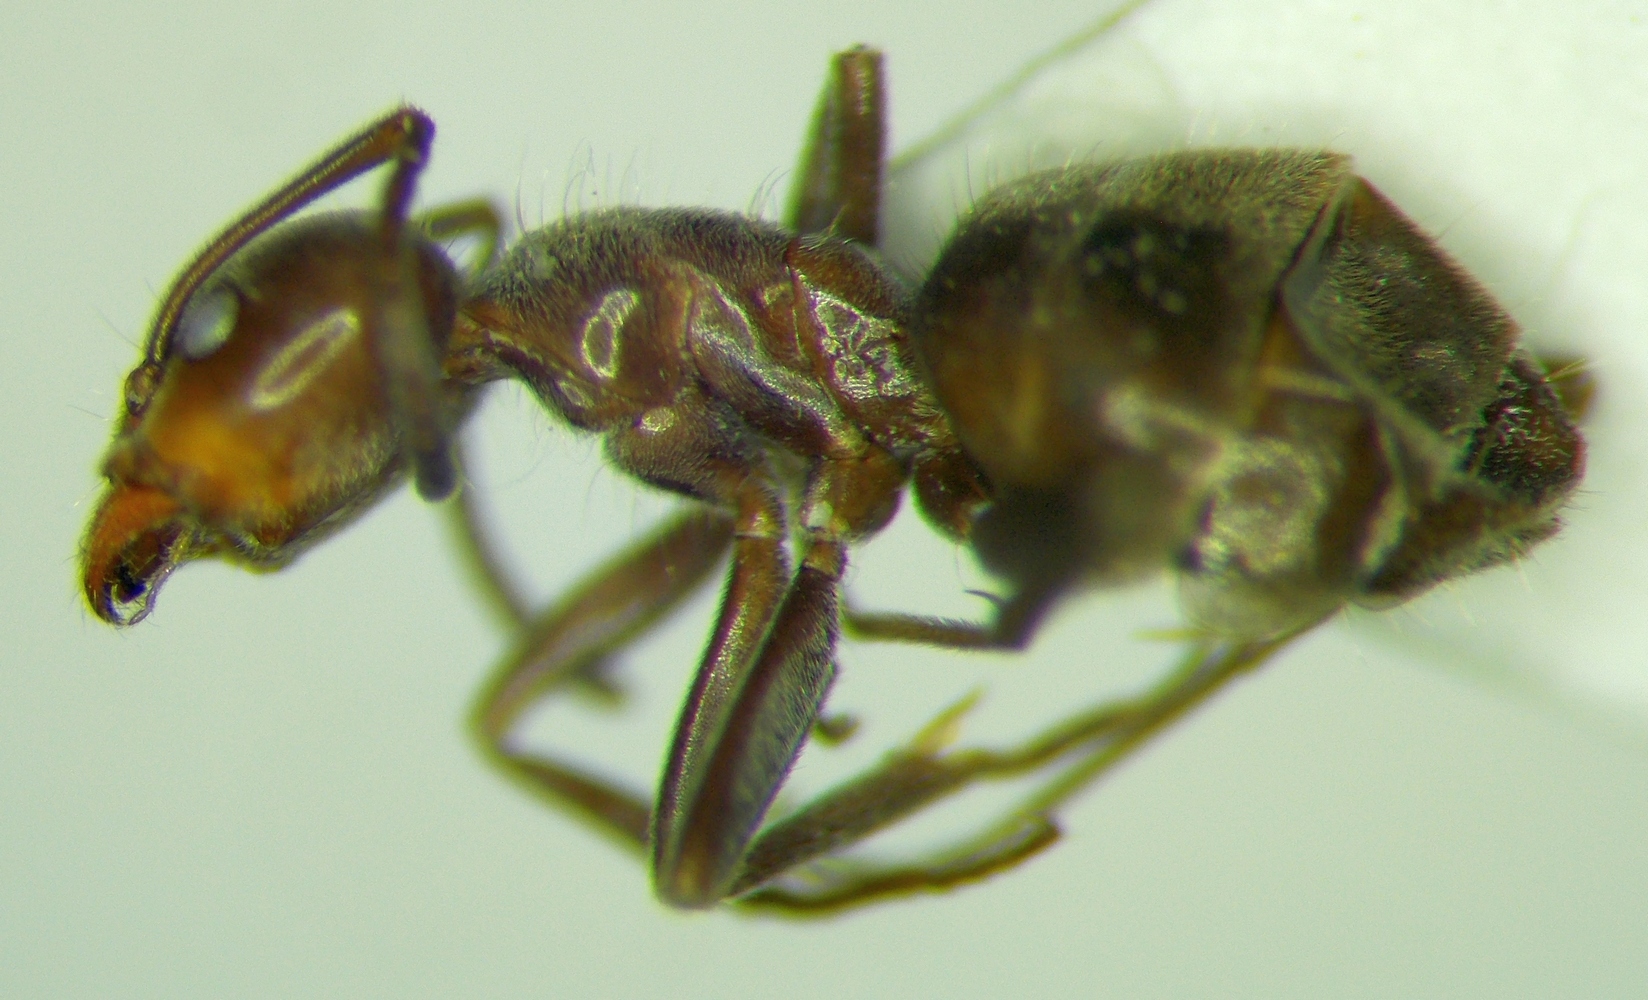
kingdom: Animalia
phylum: Arthropoda
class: Insecta
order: Hymenoptera
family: Formicidae
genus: Liometopum
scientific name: Liometopum apiculatum
